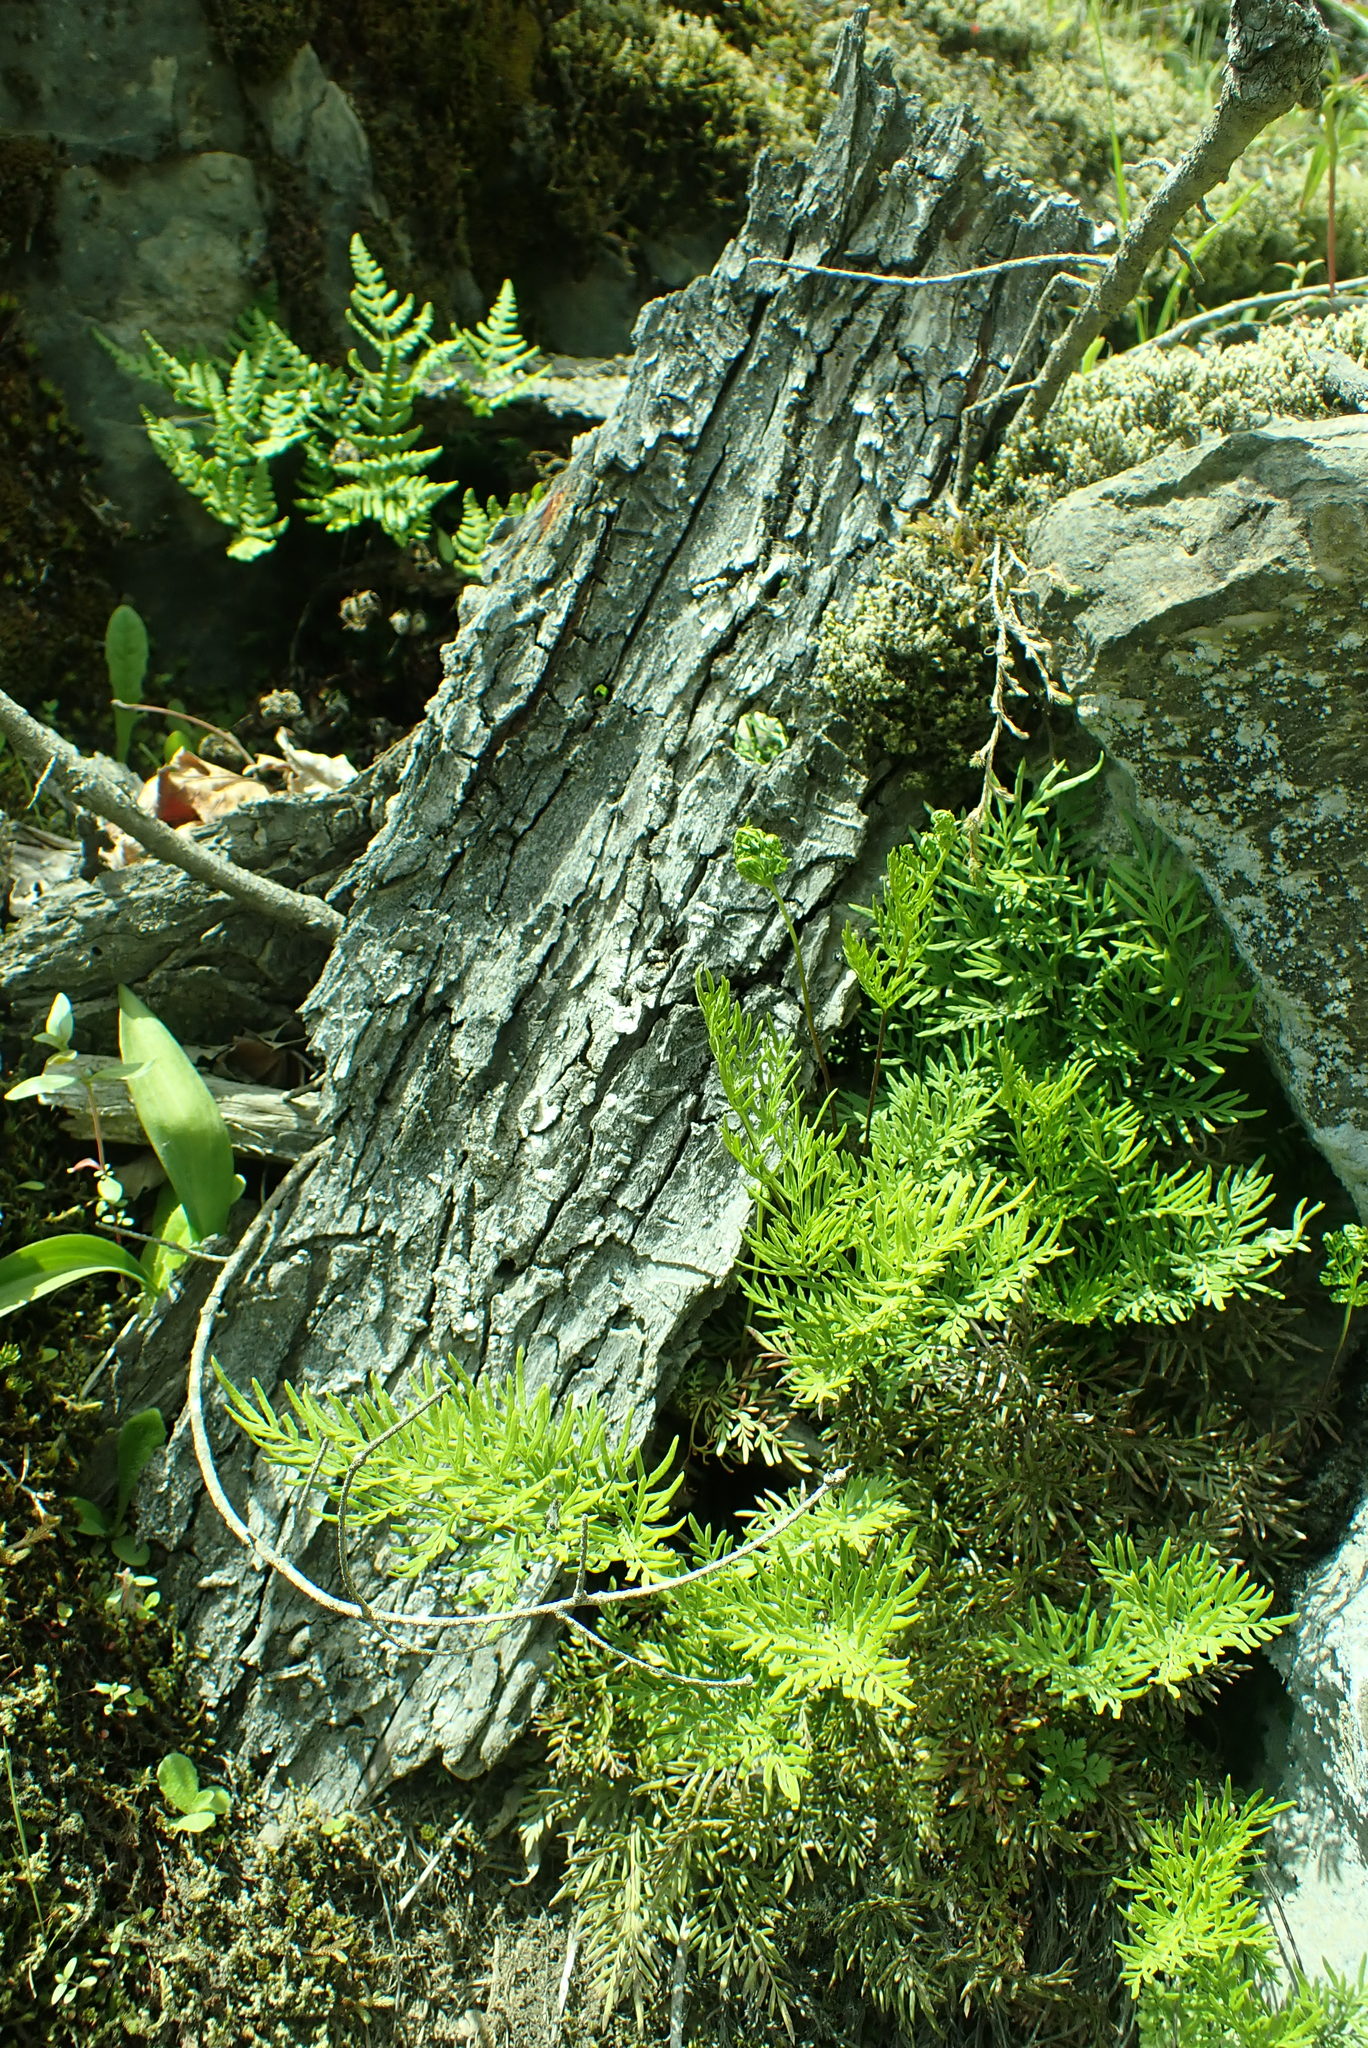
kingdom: Plantae
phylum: Tracheophyta
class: Polypodiopsida
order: Polypodiales
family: Pteridaceae
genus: Aspidotis
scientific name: Aspidotis densa
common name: Indian's dream
